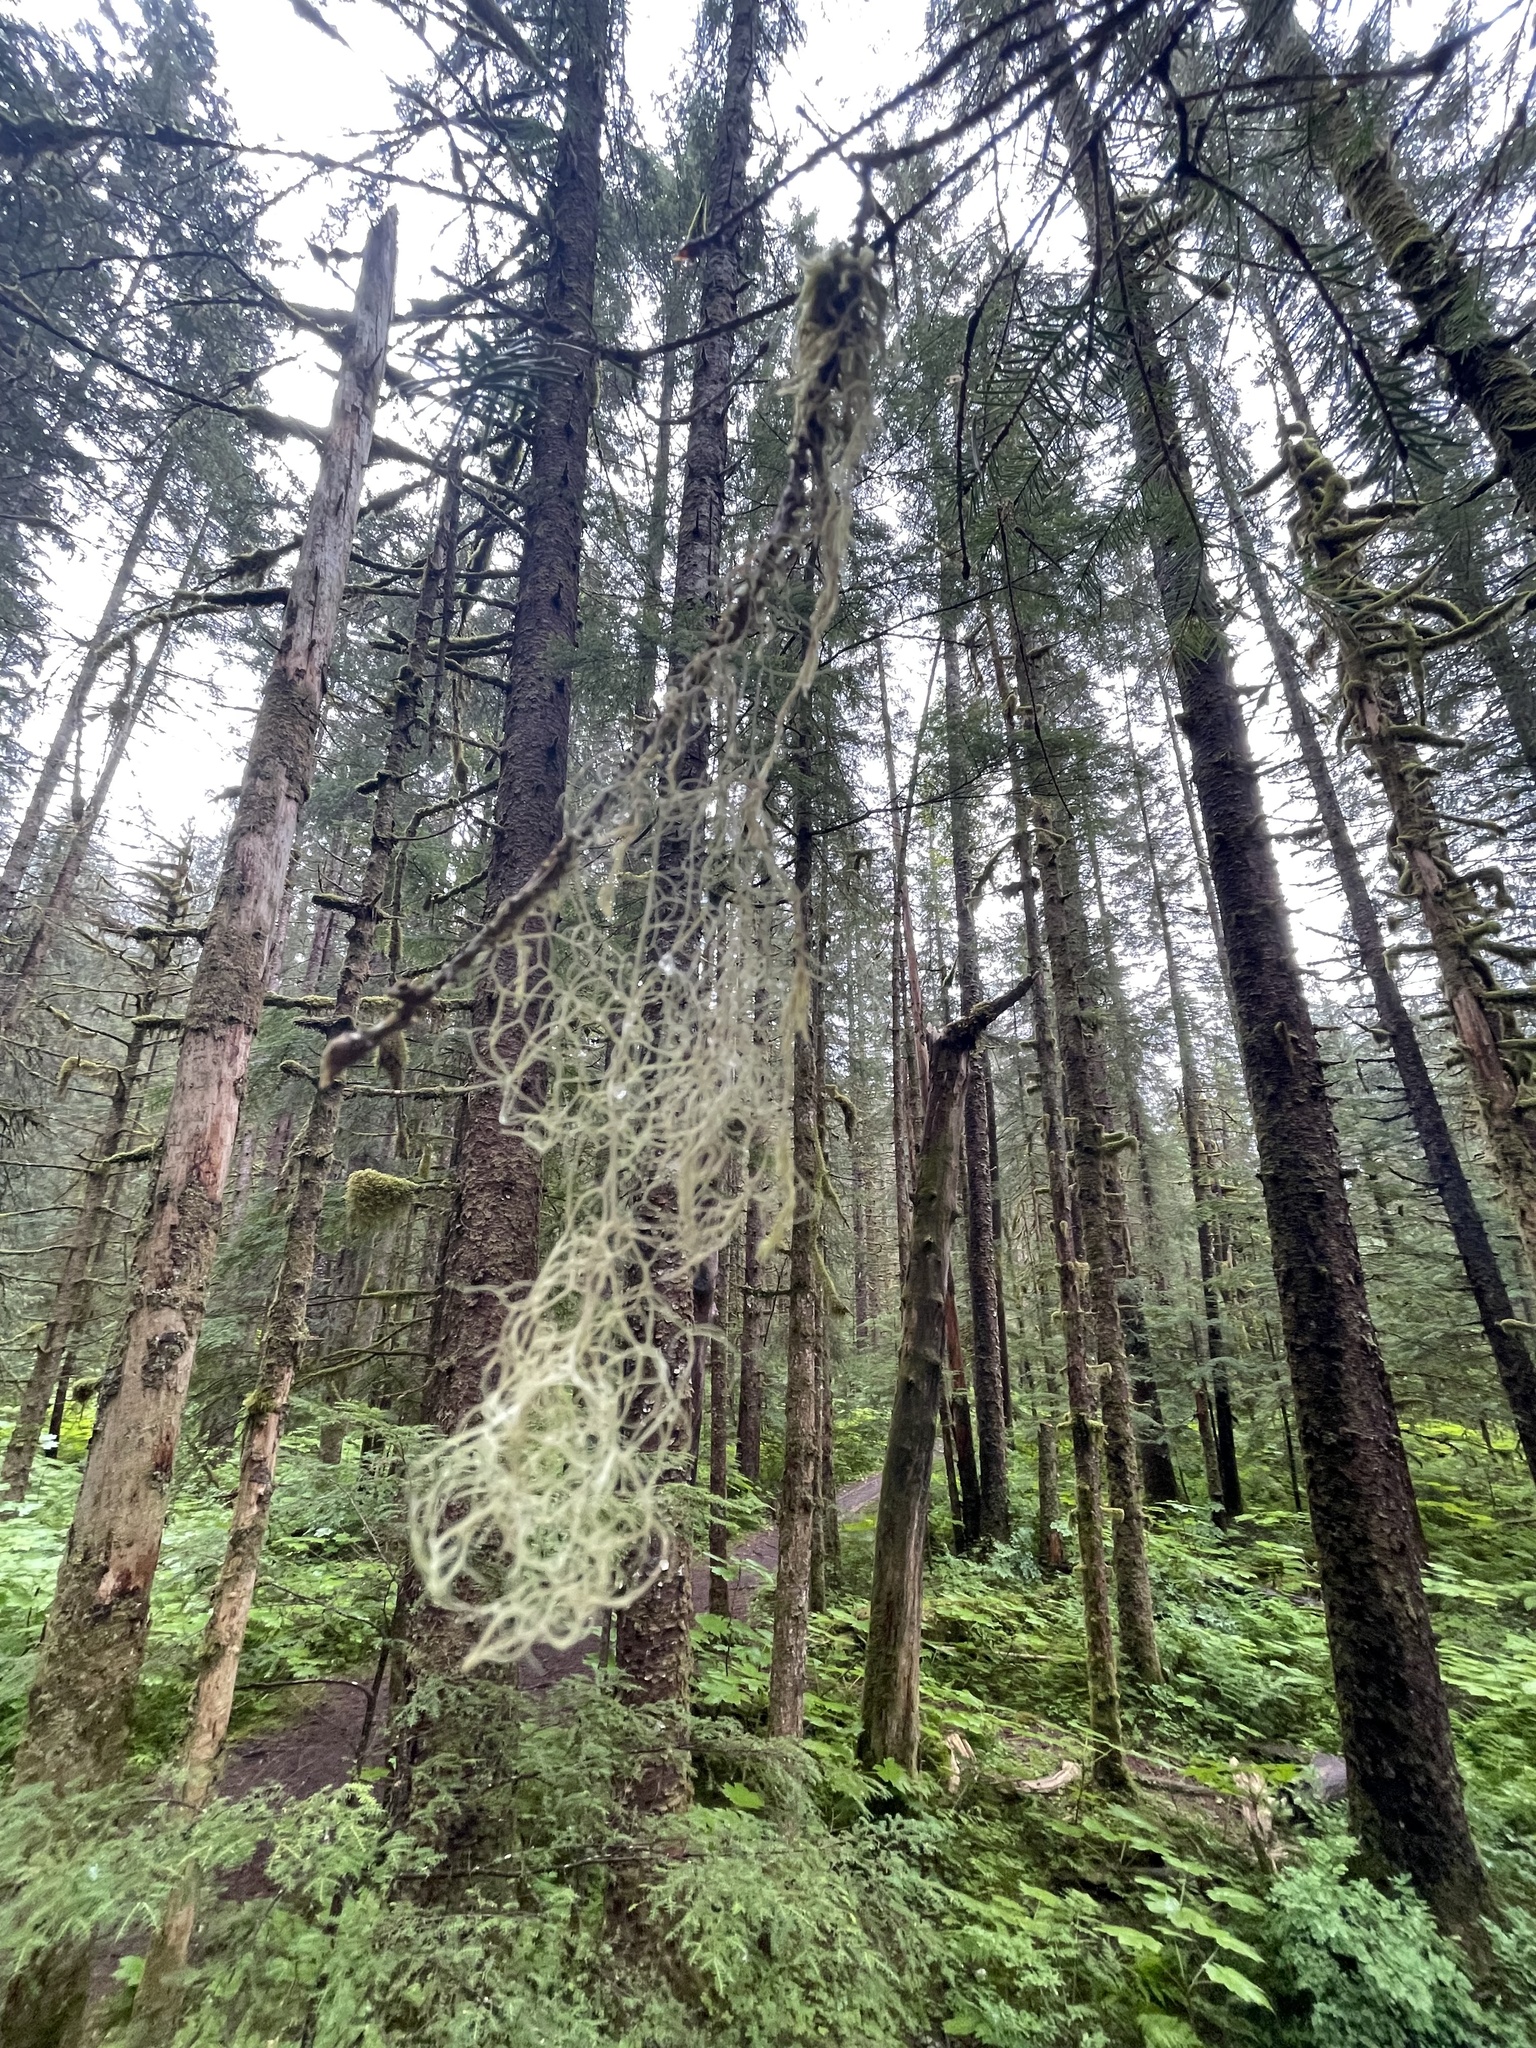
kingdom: Fungi
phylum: Ascomycota
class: Lecanoromycetes
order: Lecanorales
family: Parmeliaceae
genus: Alectoria
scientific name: Alectoria sarmentosa
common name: Witch's hair
